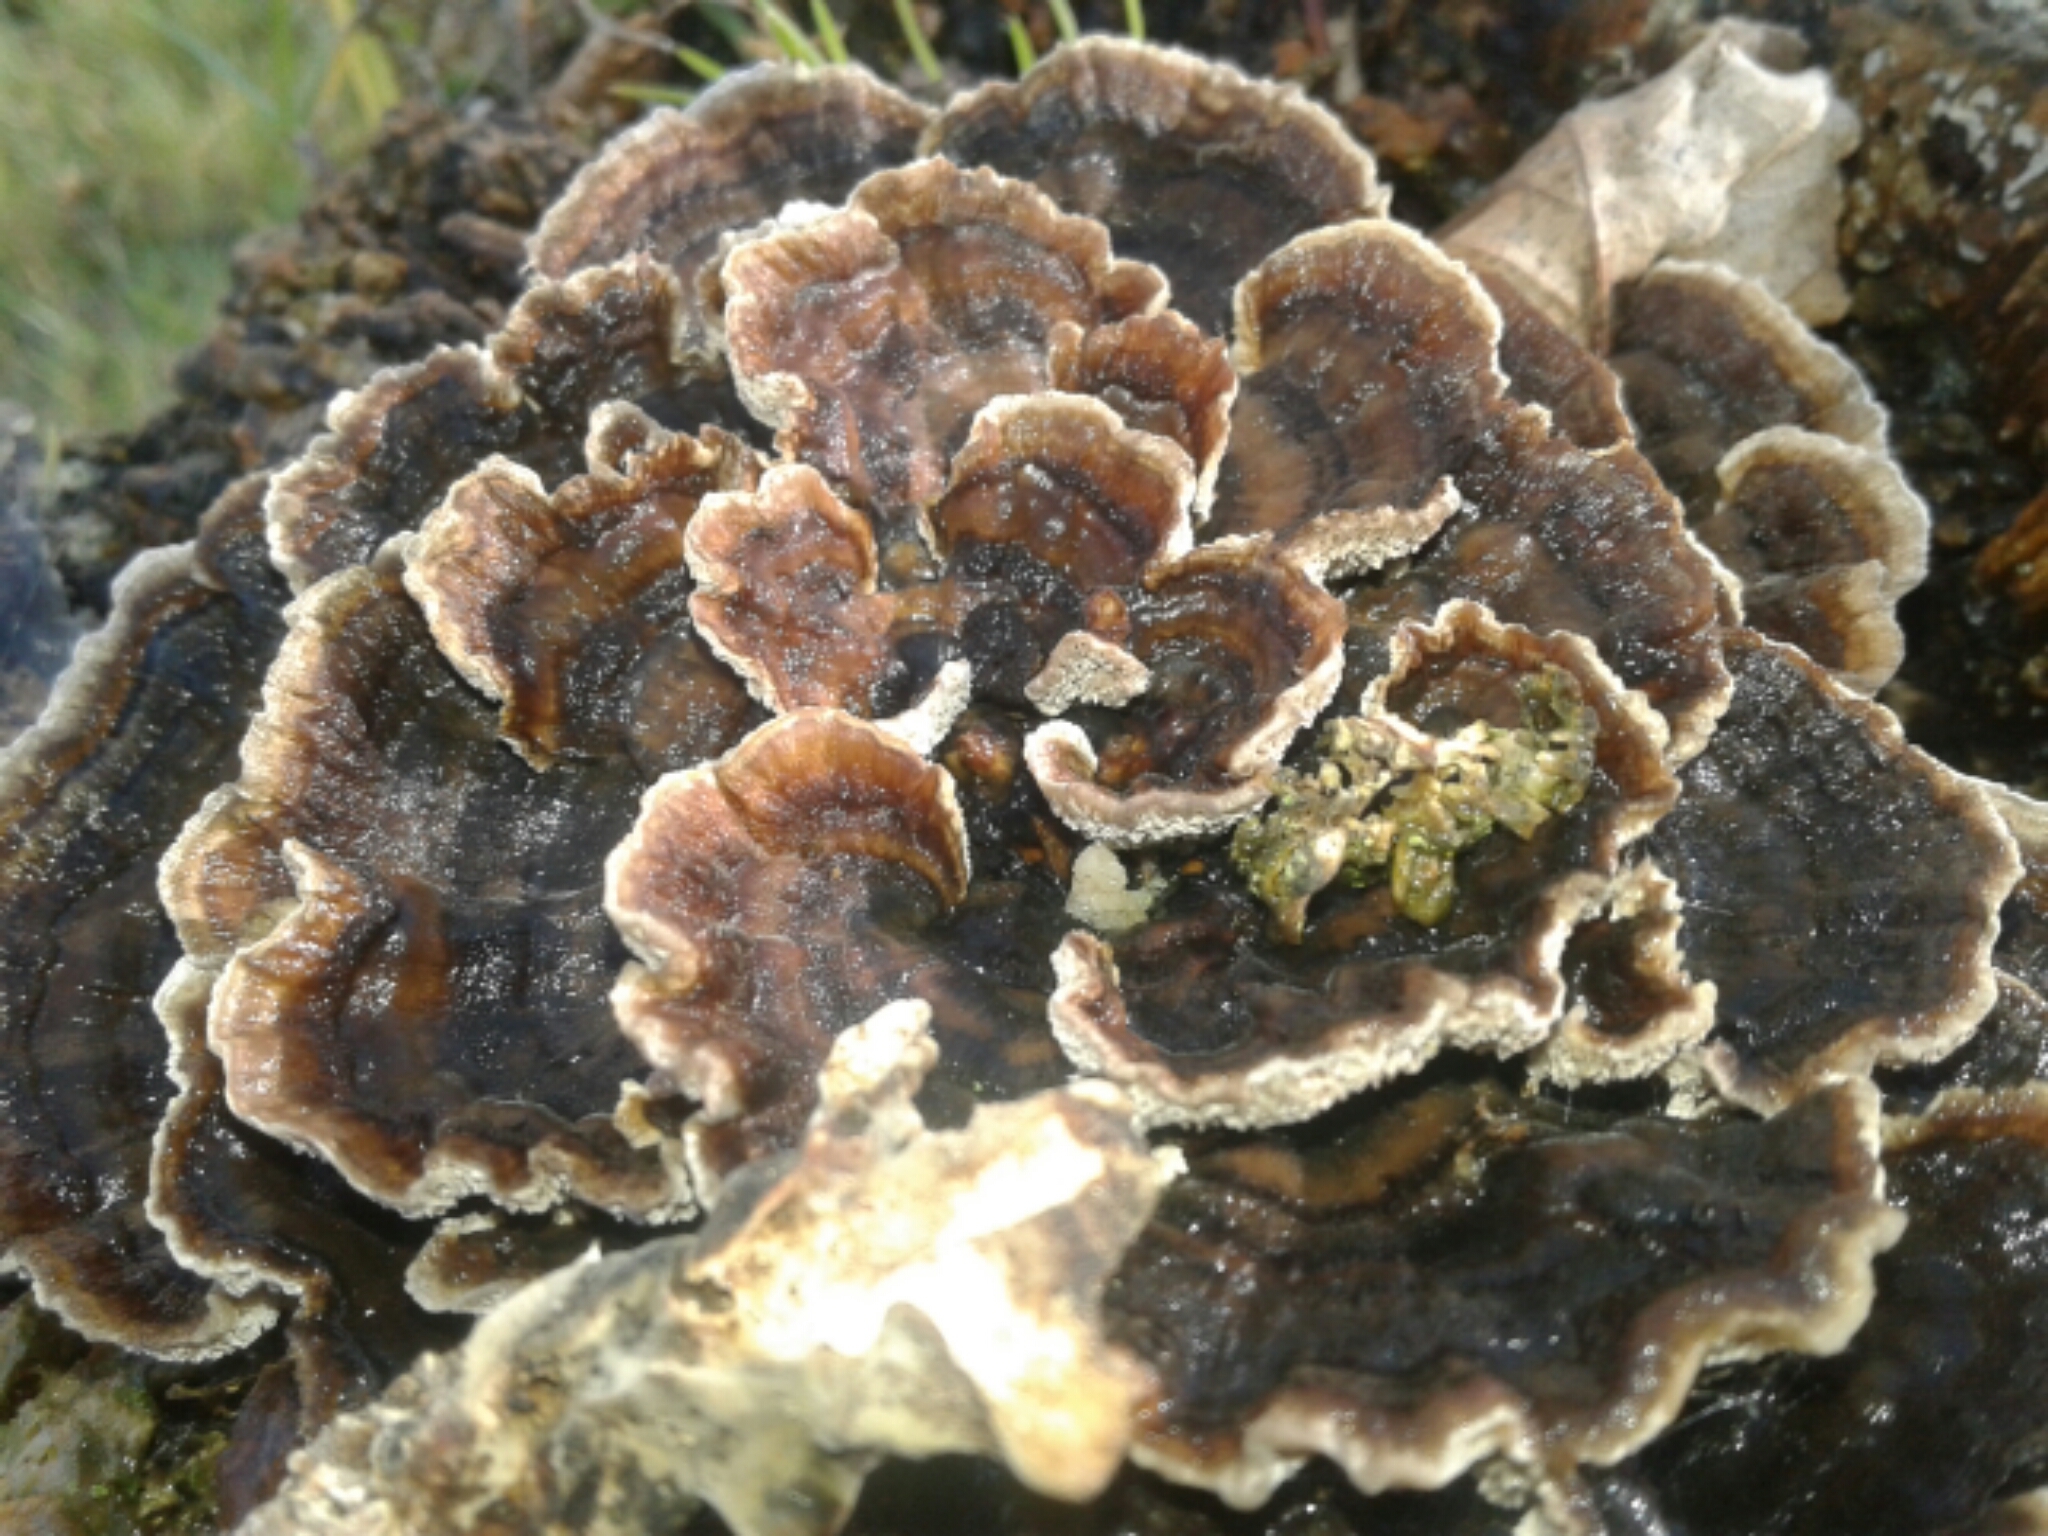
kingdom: Fungi
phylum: Basidiomycota
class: Agaricomycetes
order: Polyporales
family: Polyporaceae
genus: Trametes
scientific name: Trametes versicolor
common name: Turkeytail
